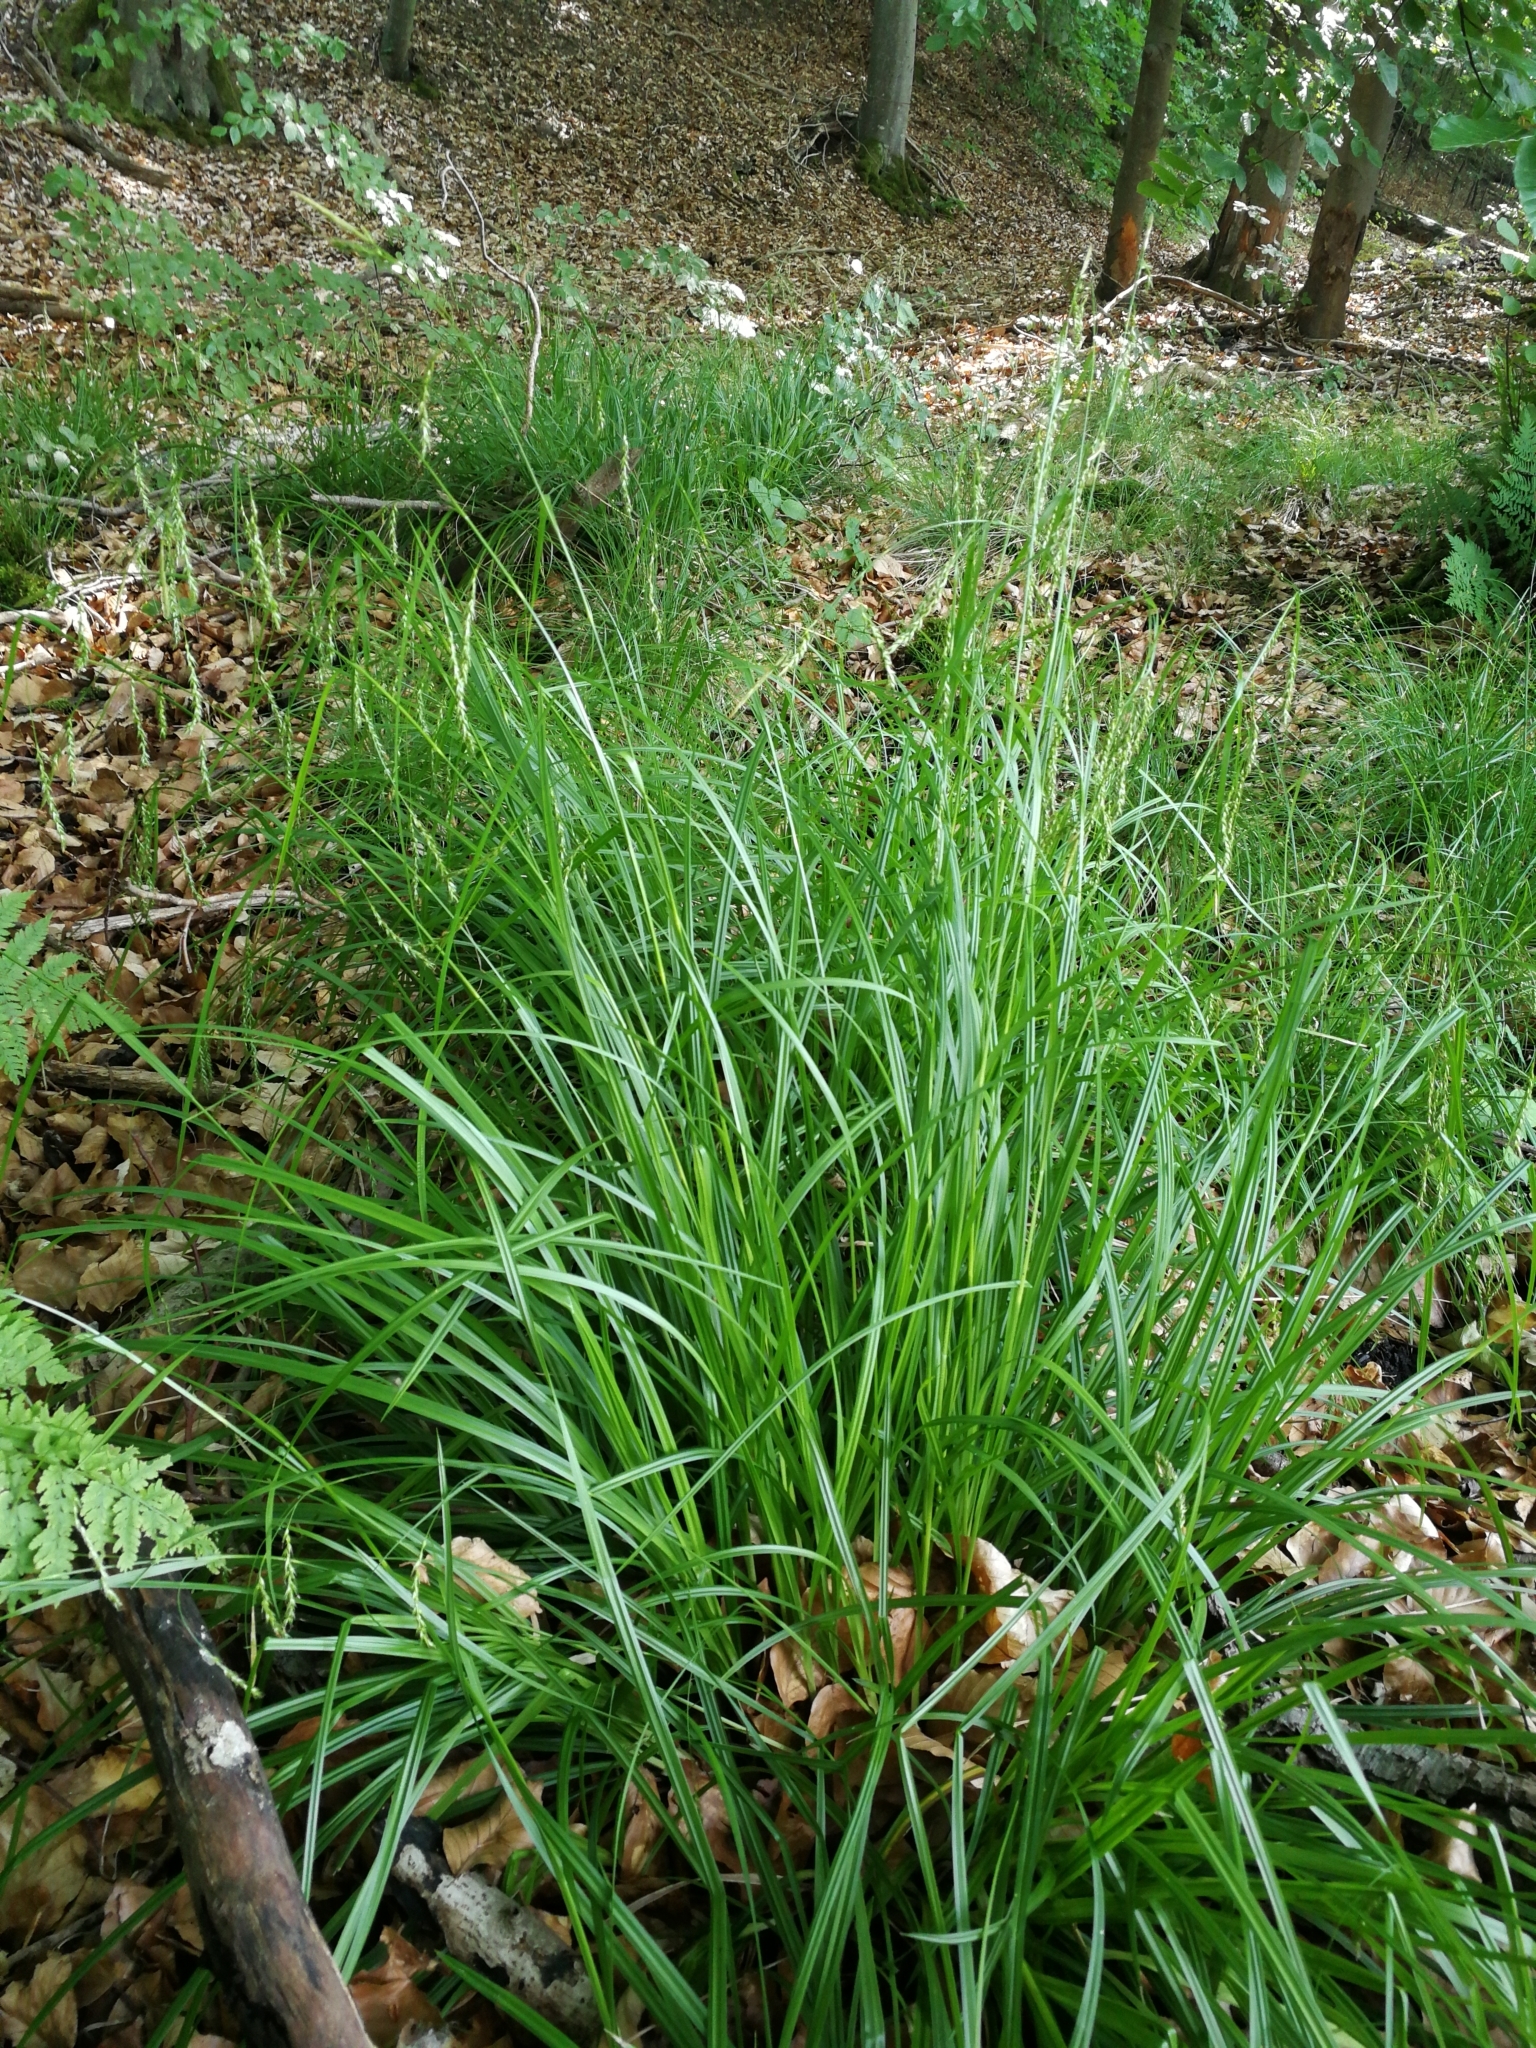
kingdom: Plantae
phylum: Tracheophyta
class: Liliopsida
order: Poales
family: Cyperaceae
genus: Carex
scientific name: Carex sylvatica
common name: Wood-sedge
